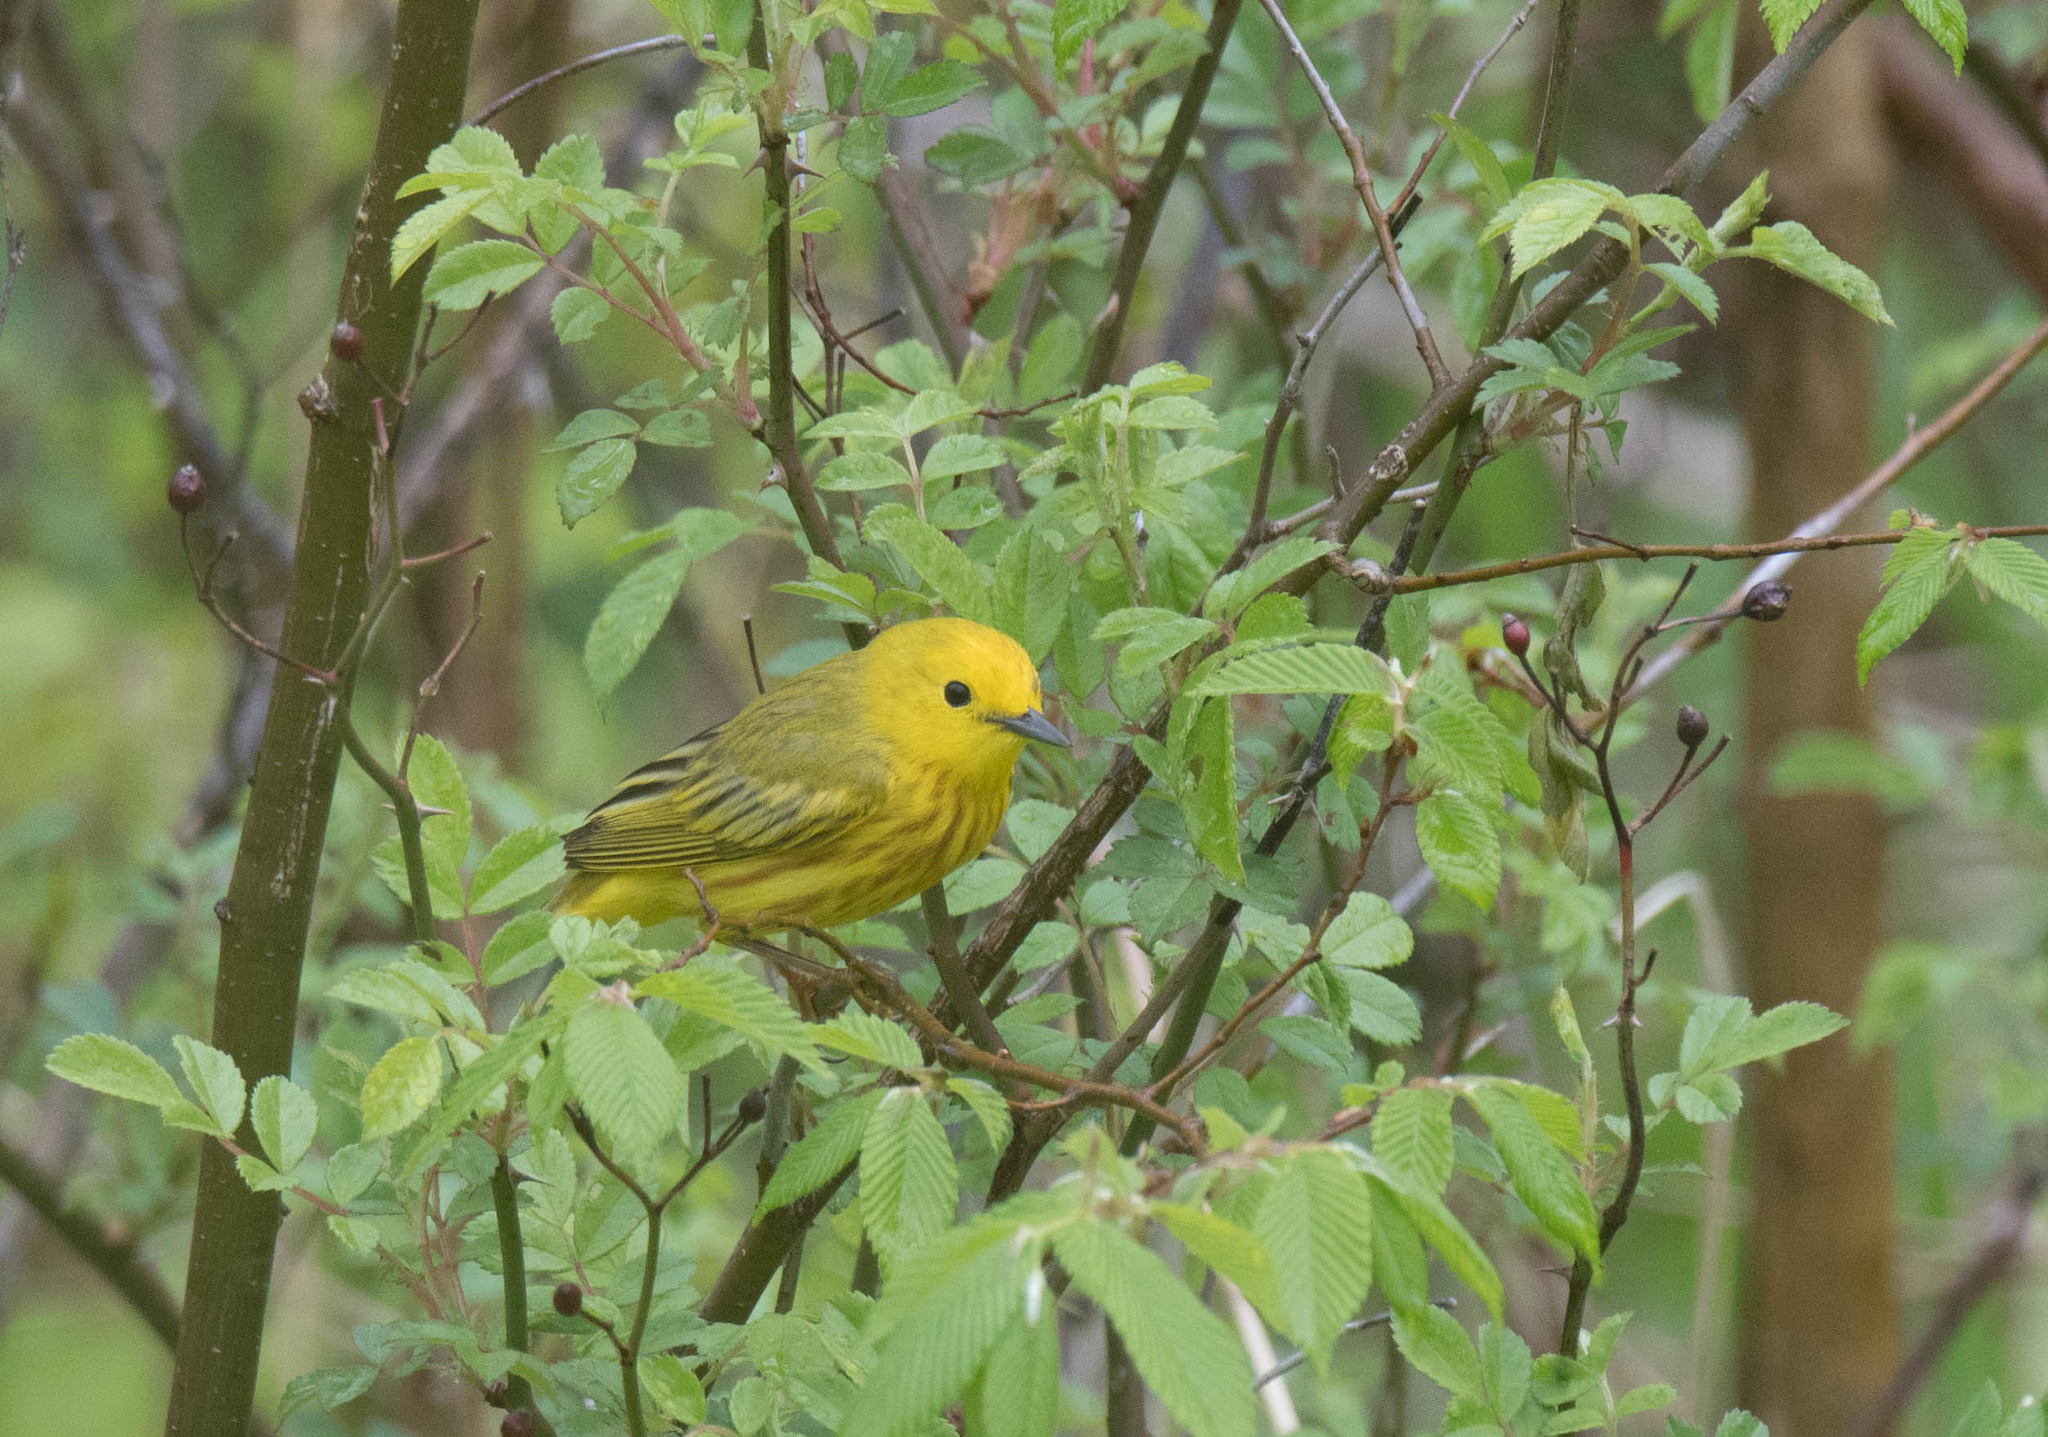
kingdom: Animalia
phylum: Chordata
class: Aves
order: Passeriformes
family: Parulidae
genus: Setophaga
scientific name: Setophaga petechia
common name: Yellow warbler
